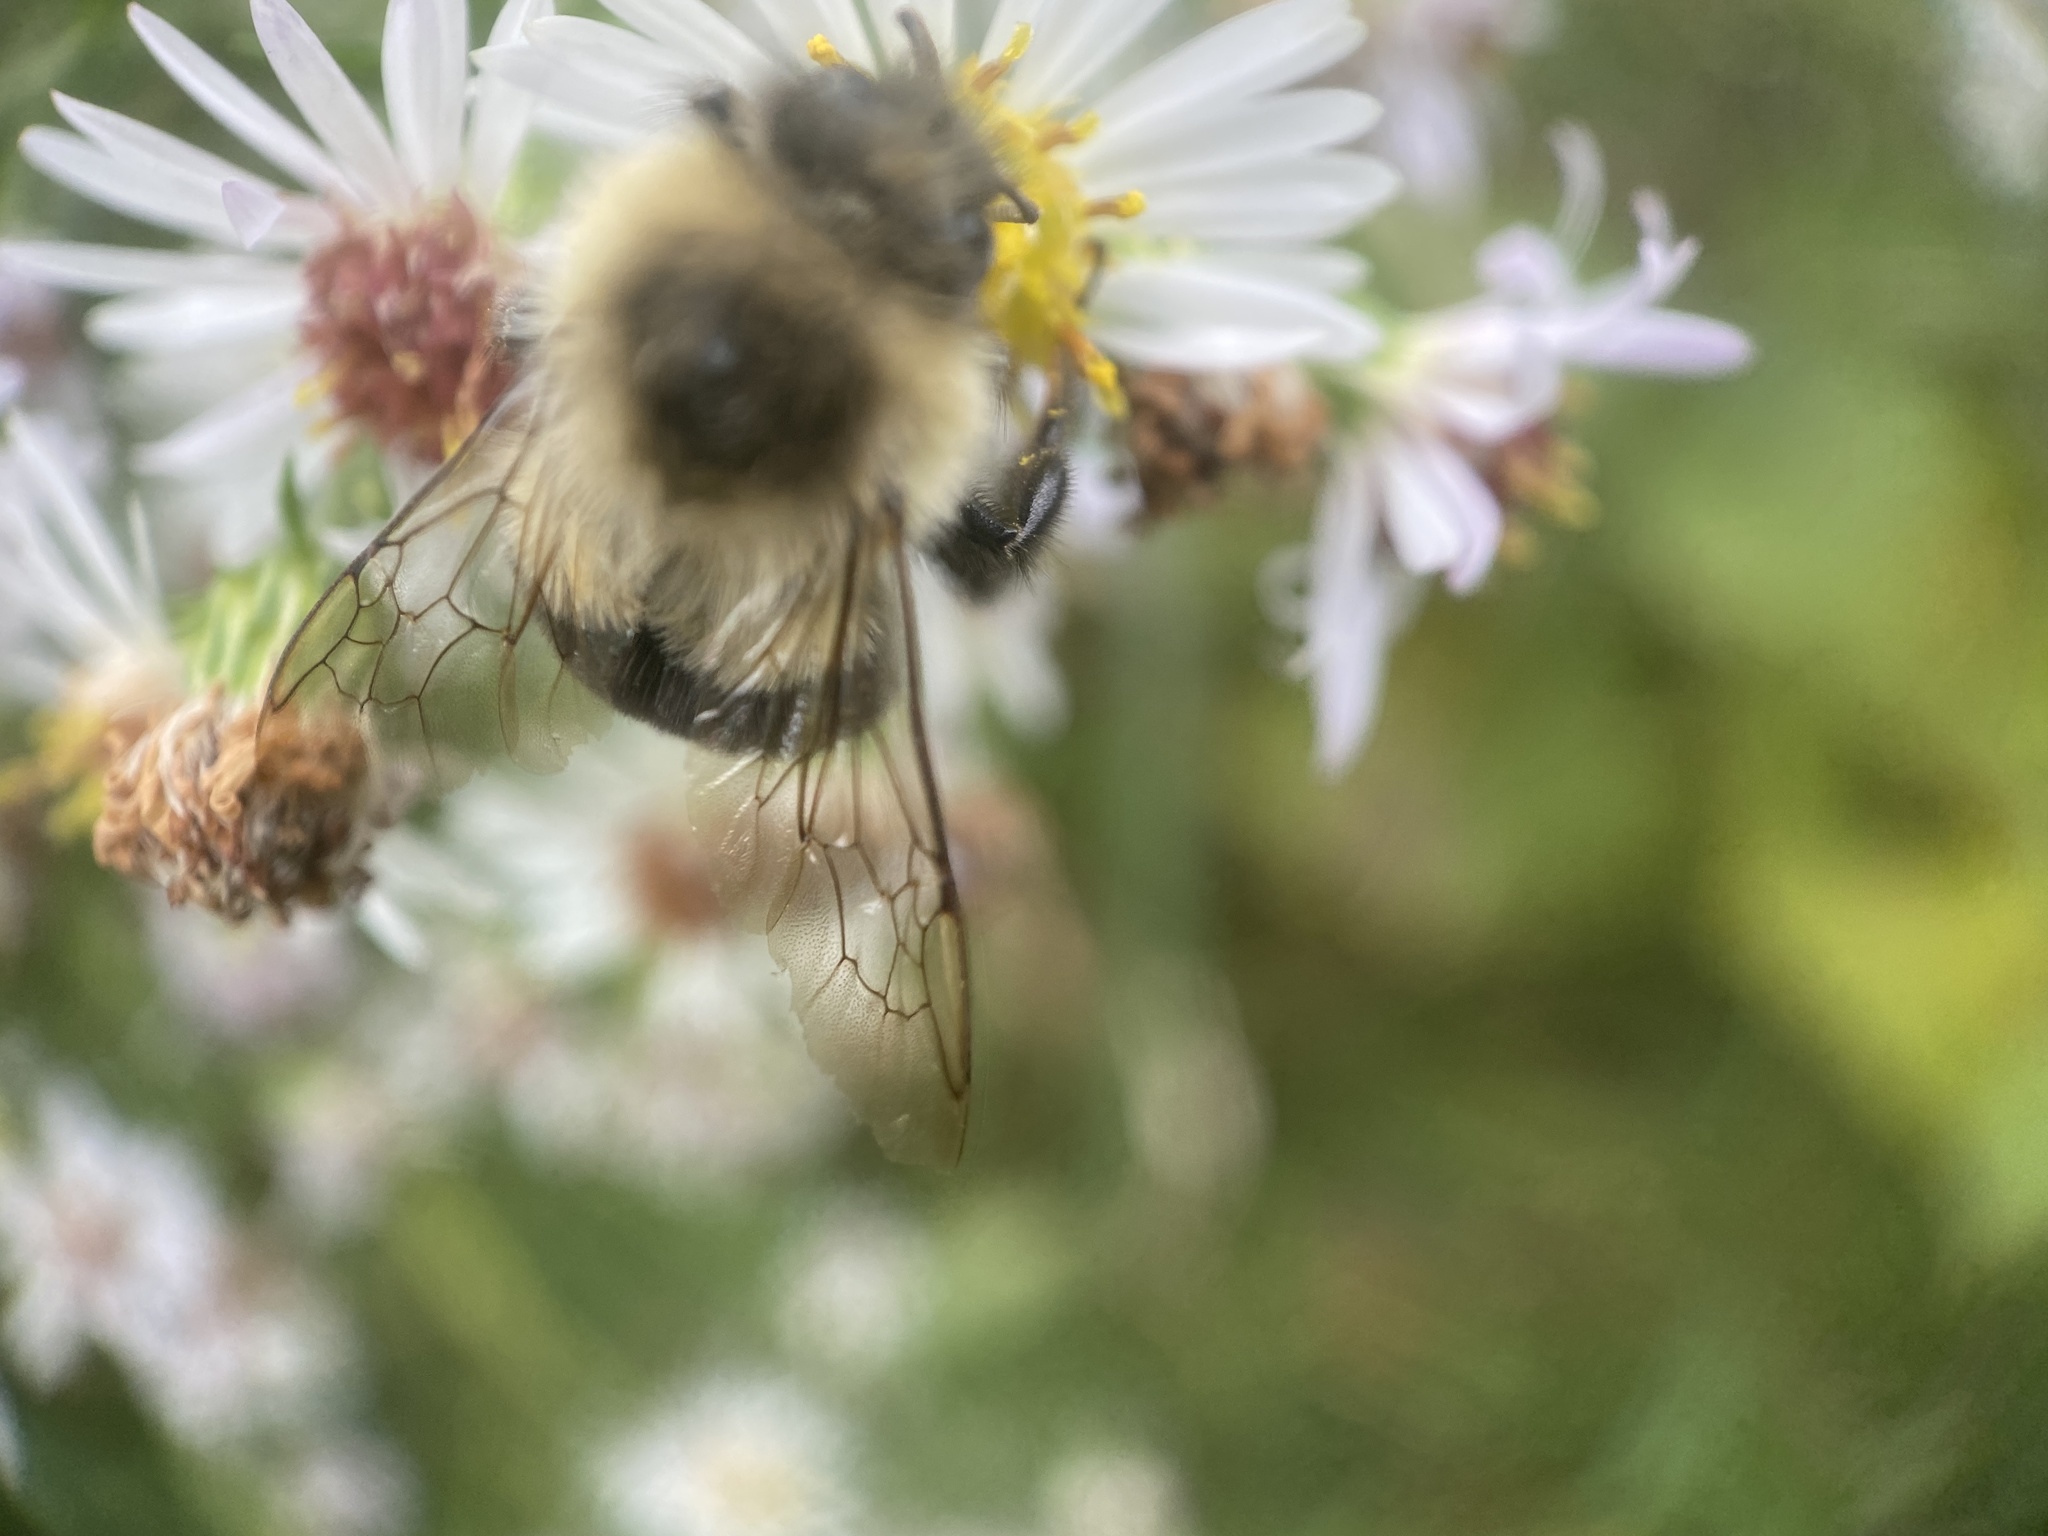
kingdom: Animalia
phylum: Arthropoda
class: Insecta
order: Hymenoptera
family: Apidae
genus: Bombus
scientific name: Bombus impatiens
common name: Common eastern bumble bee
